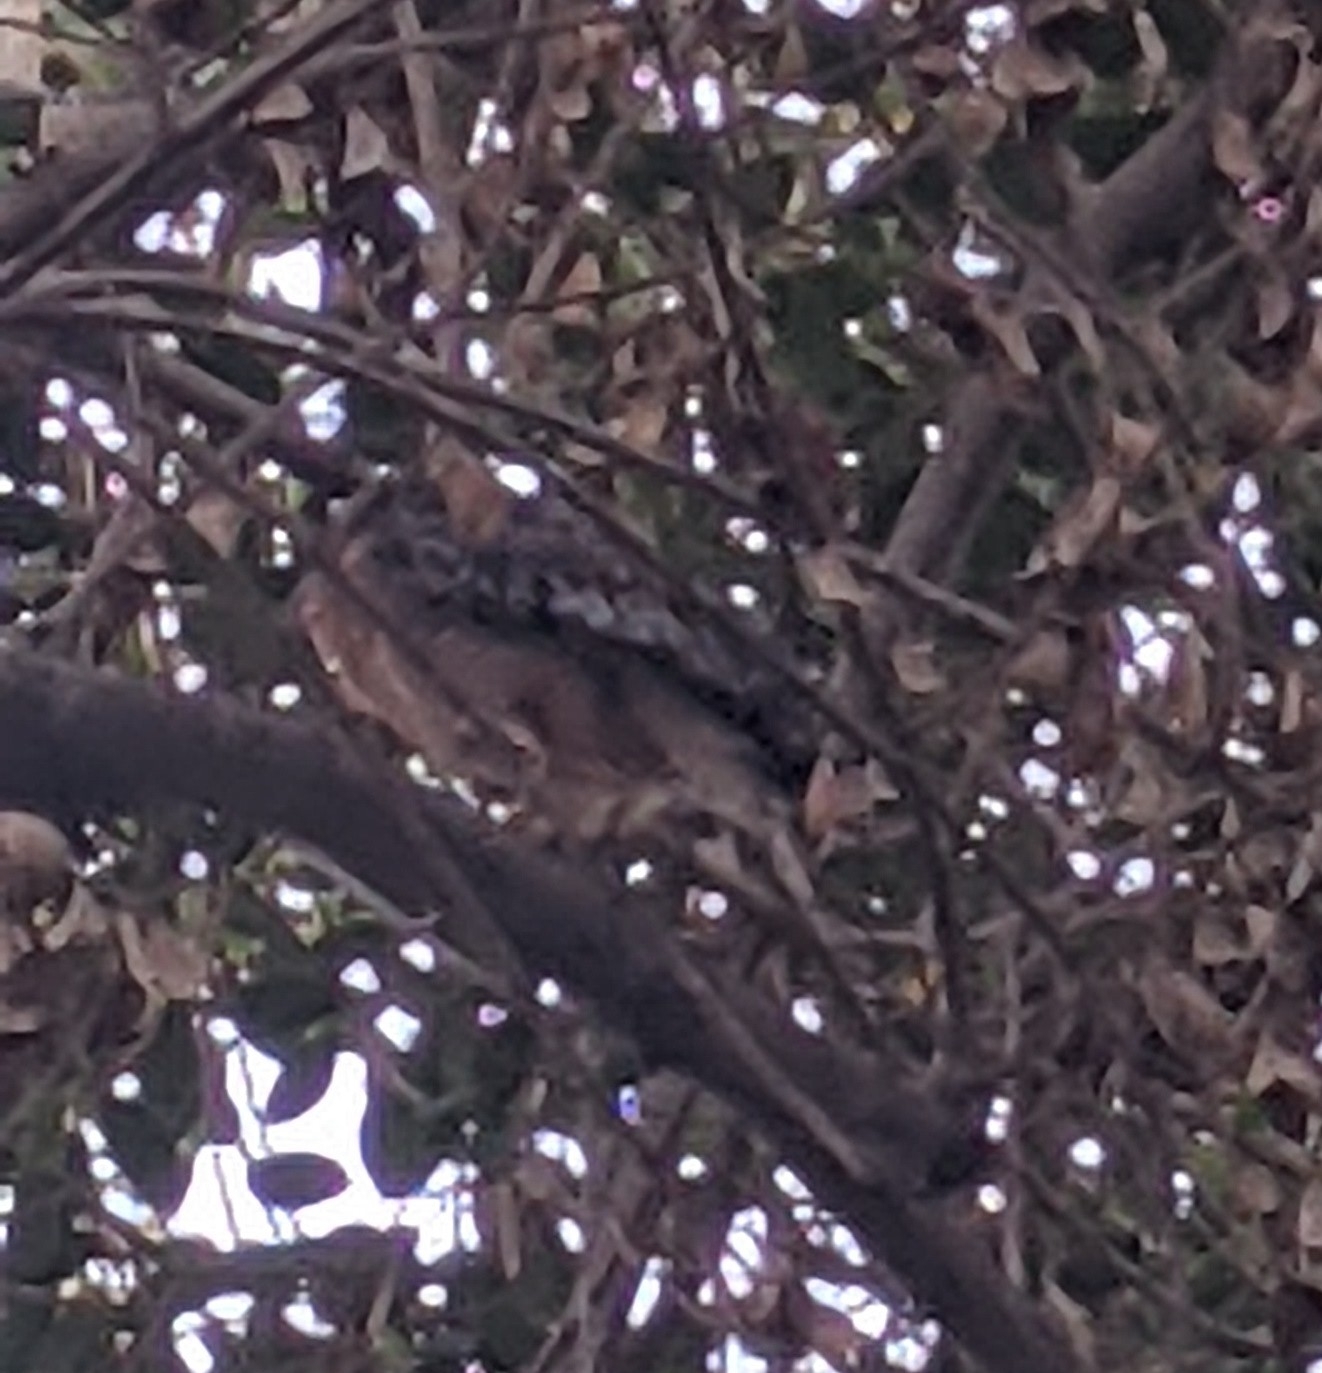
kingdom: Animalia
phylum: Chordata
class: Aves
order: Accipitriformes
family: Accipitridae
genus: Buteo
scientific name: Buteo lineatus
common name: Red-shouldered hawk
